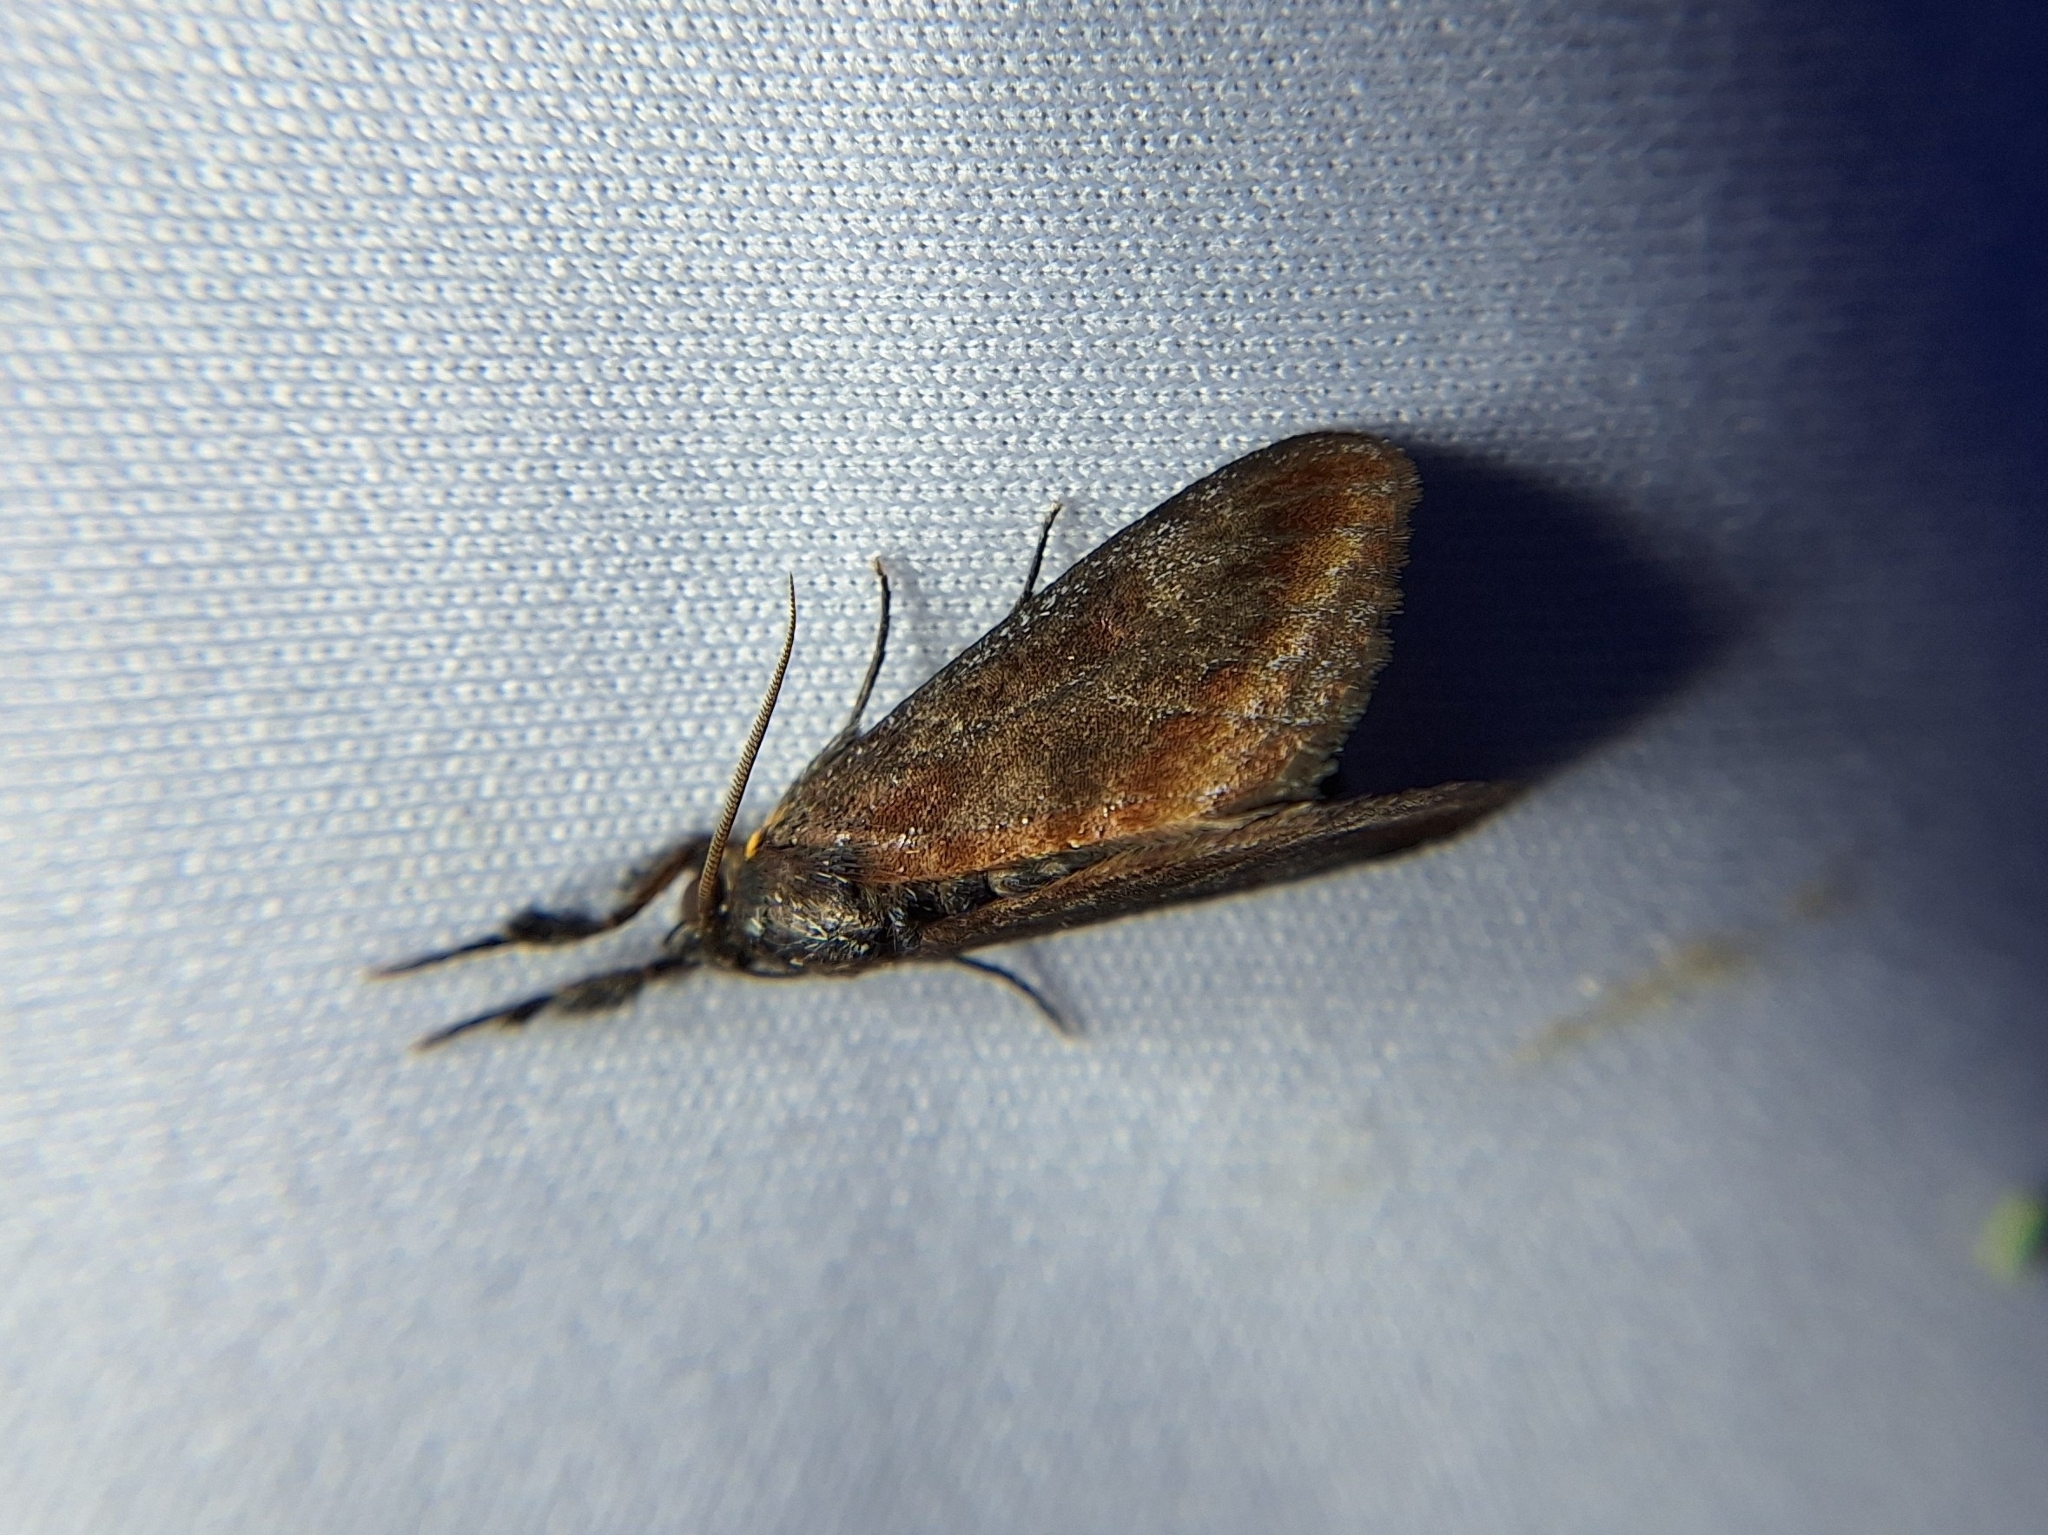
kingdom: Animalia
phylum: Arthropoda
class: Insecta
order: Lepidoptera
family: Noctuidae
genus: Gerra
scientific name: Gerra radicalis
